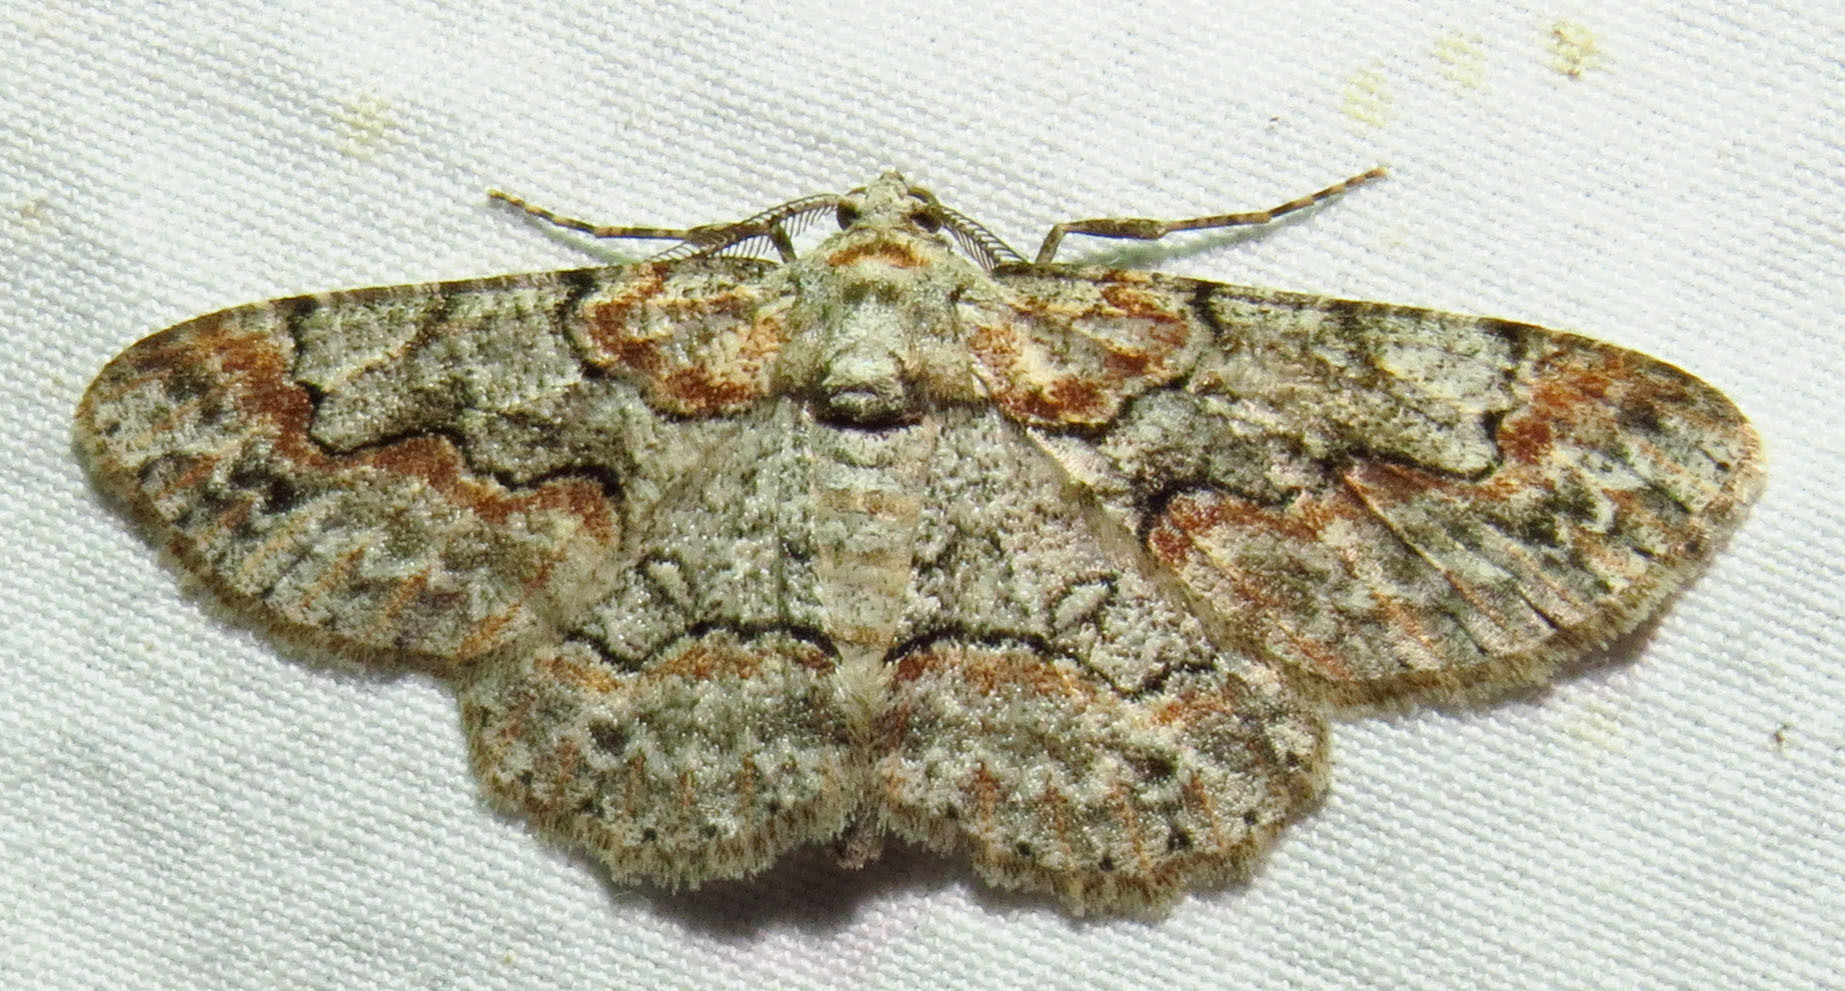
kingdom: Animalia
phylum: Arthropoda
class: Insecta
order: Lepidoptera
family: Geometridae
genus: Iridopsis
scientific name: Iridopsis defectaria
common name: Brown-shaded gray
